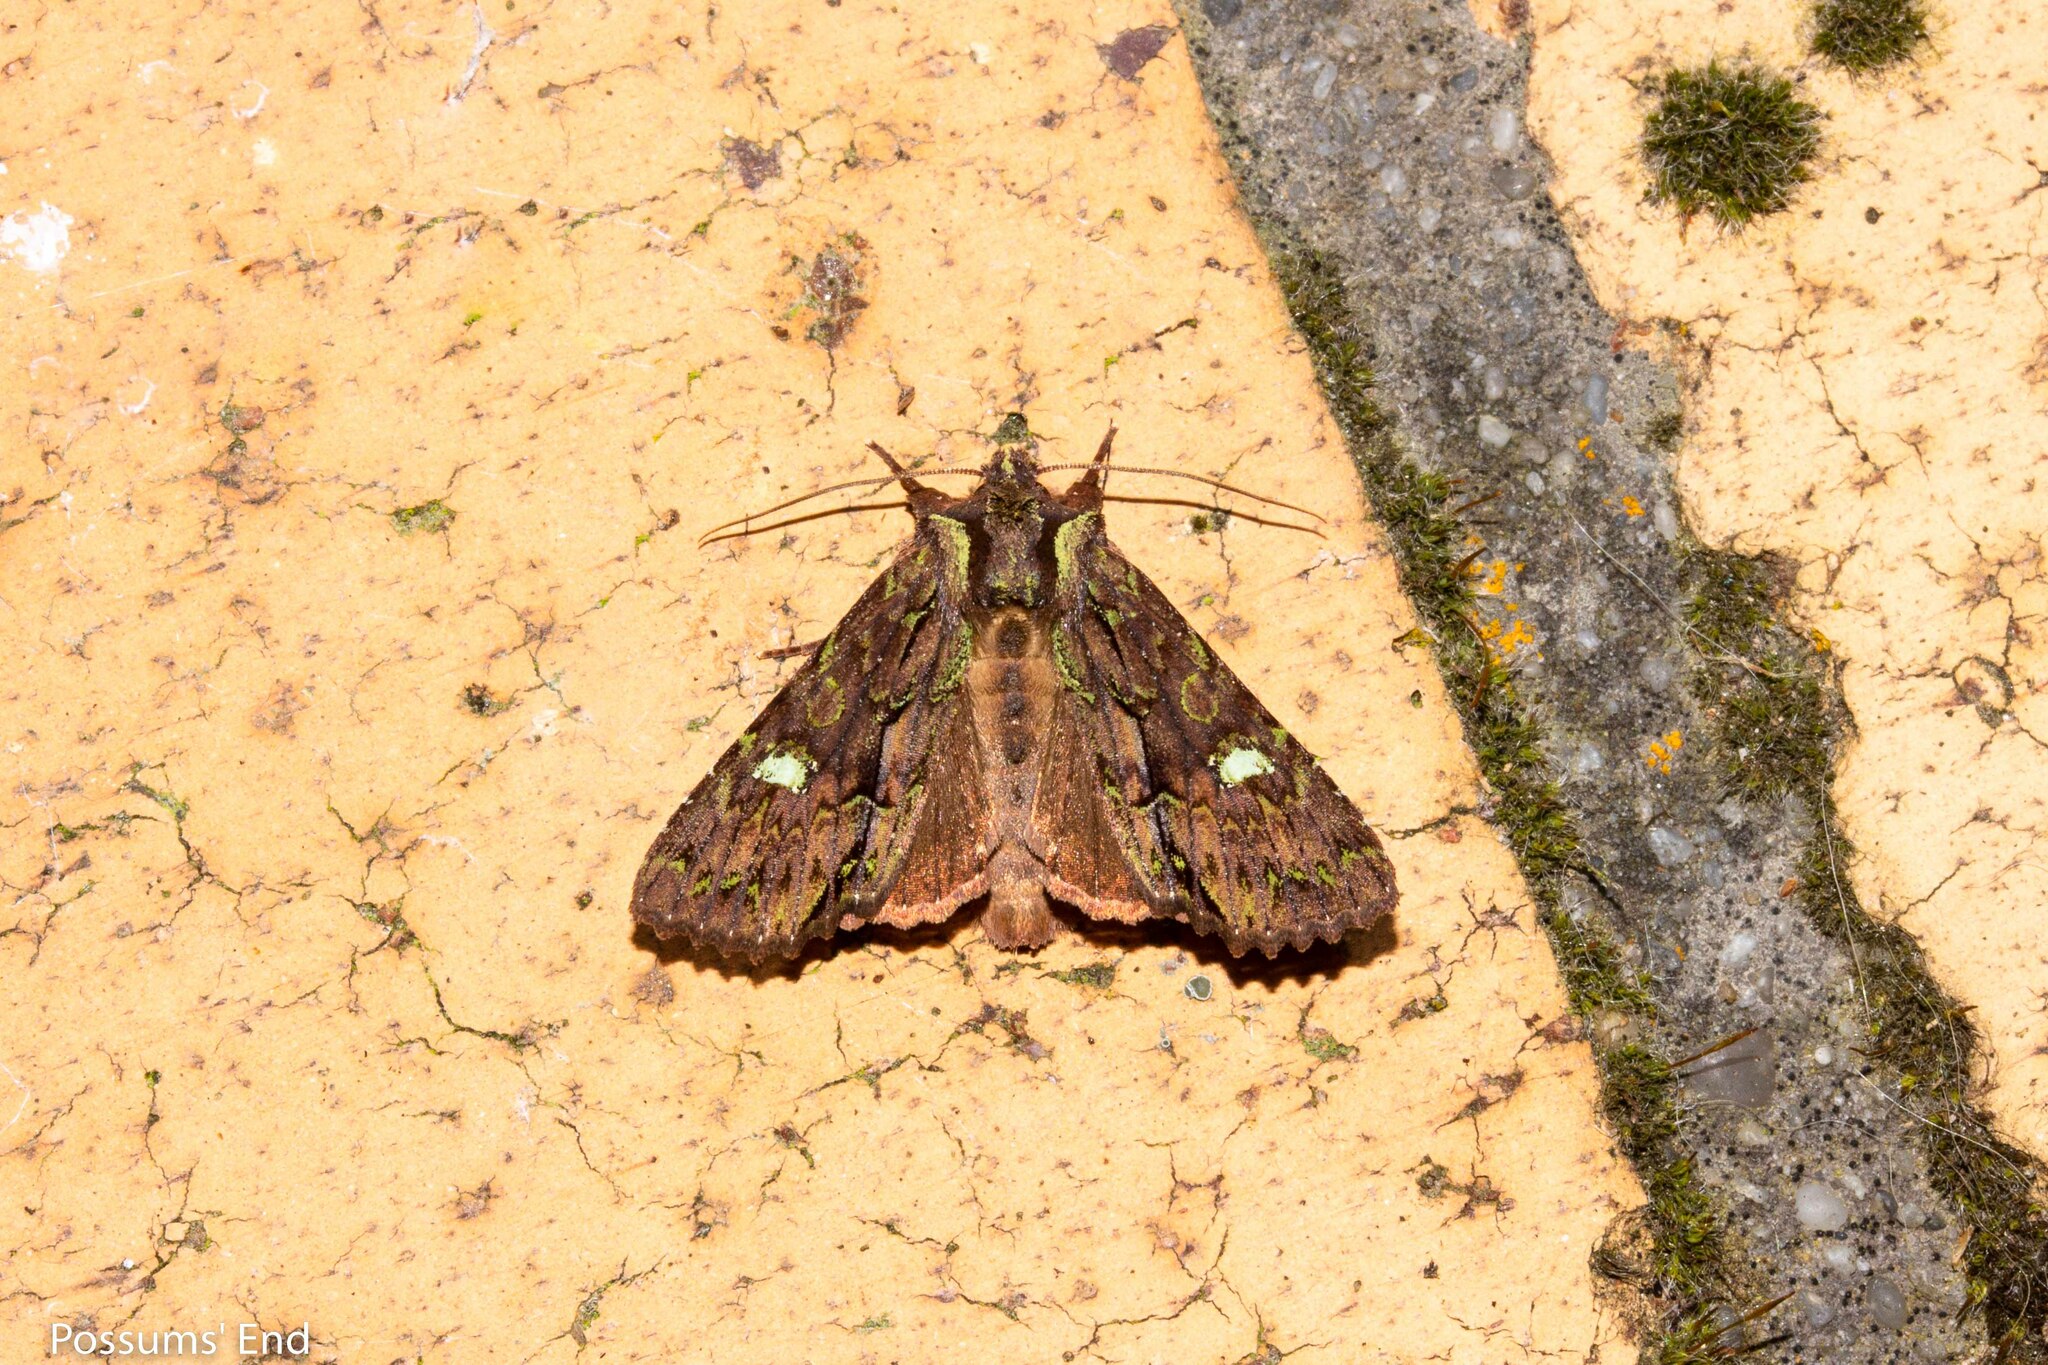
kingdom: Animalia
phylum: Arthropoda
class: Insecta
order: Lepidoptera
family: Noctuidae
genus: Meterana
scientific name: Meterana diatmeta
